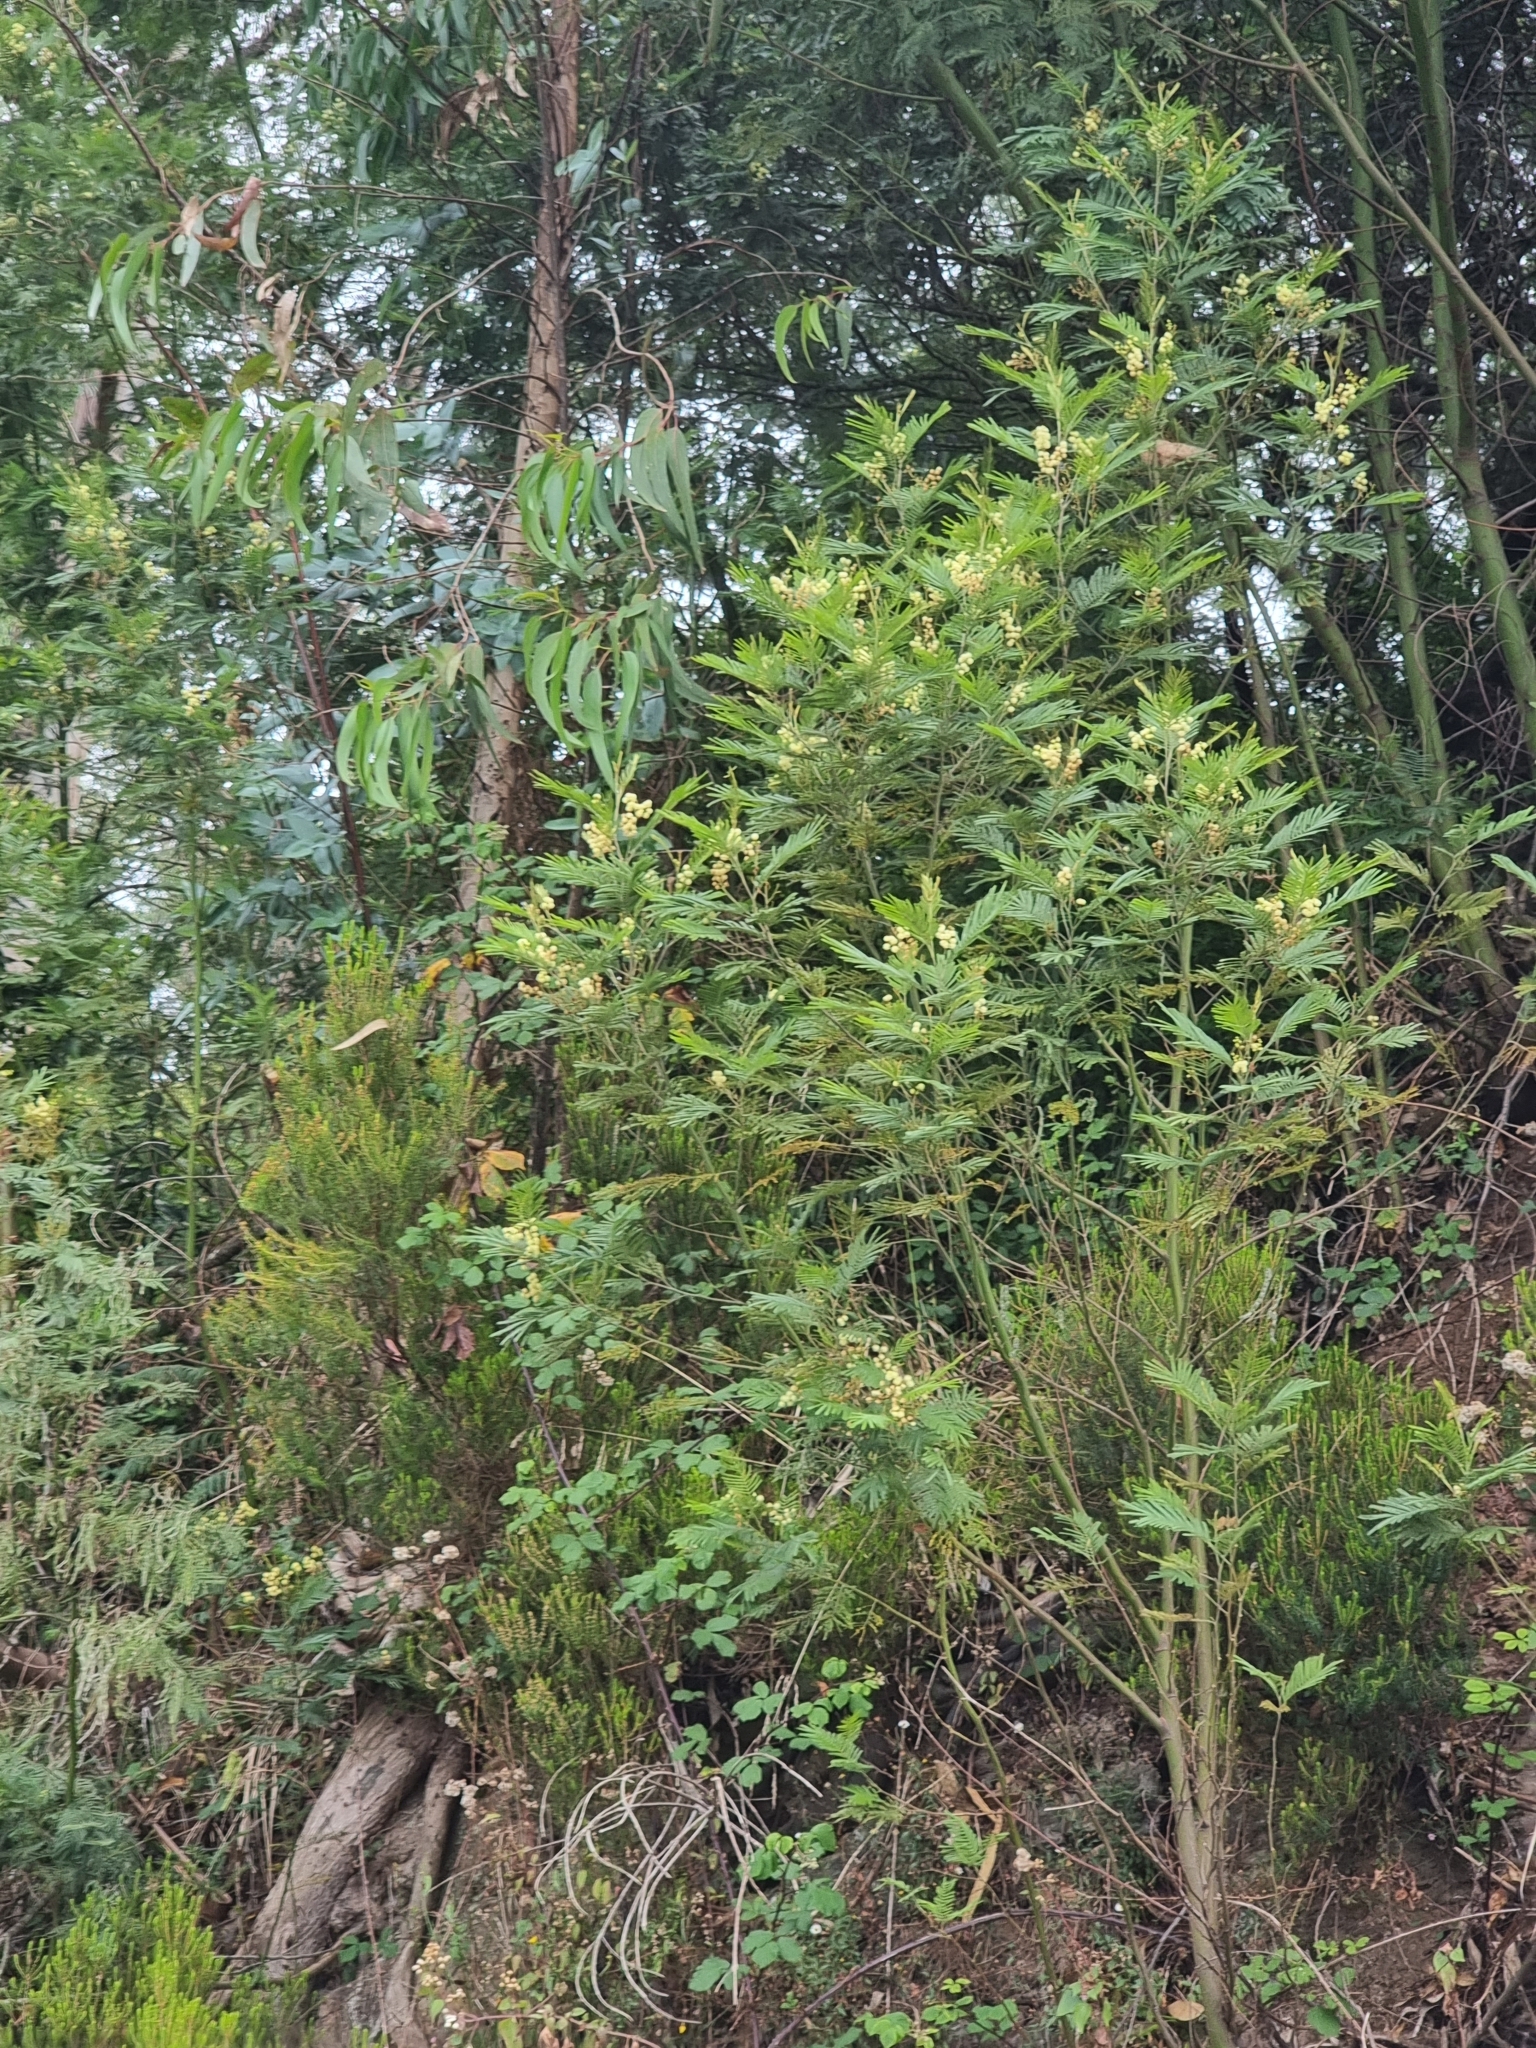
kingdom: Plantae
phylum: Tracheophyta
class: Magnoliopsida
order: Fabales
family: Fabaceae
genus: Acacia
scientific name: Acacia mearnsii
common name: Black wattle
